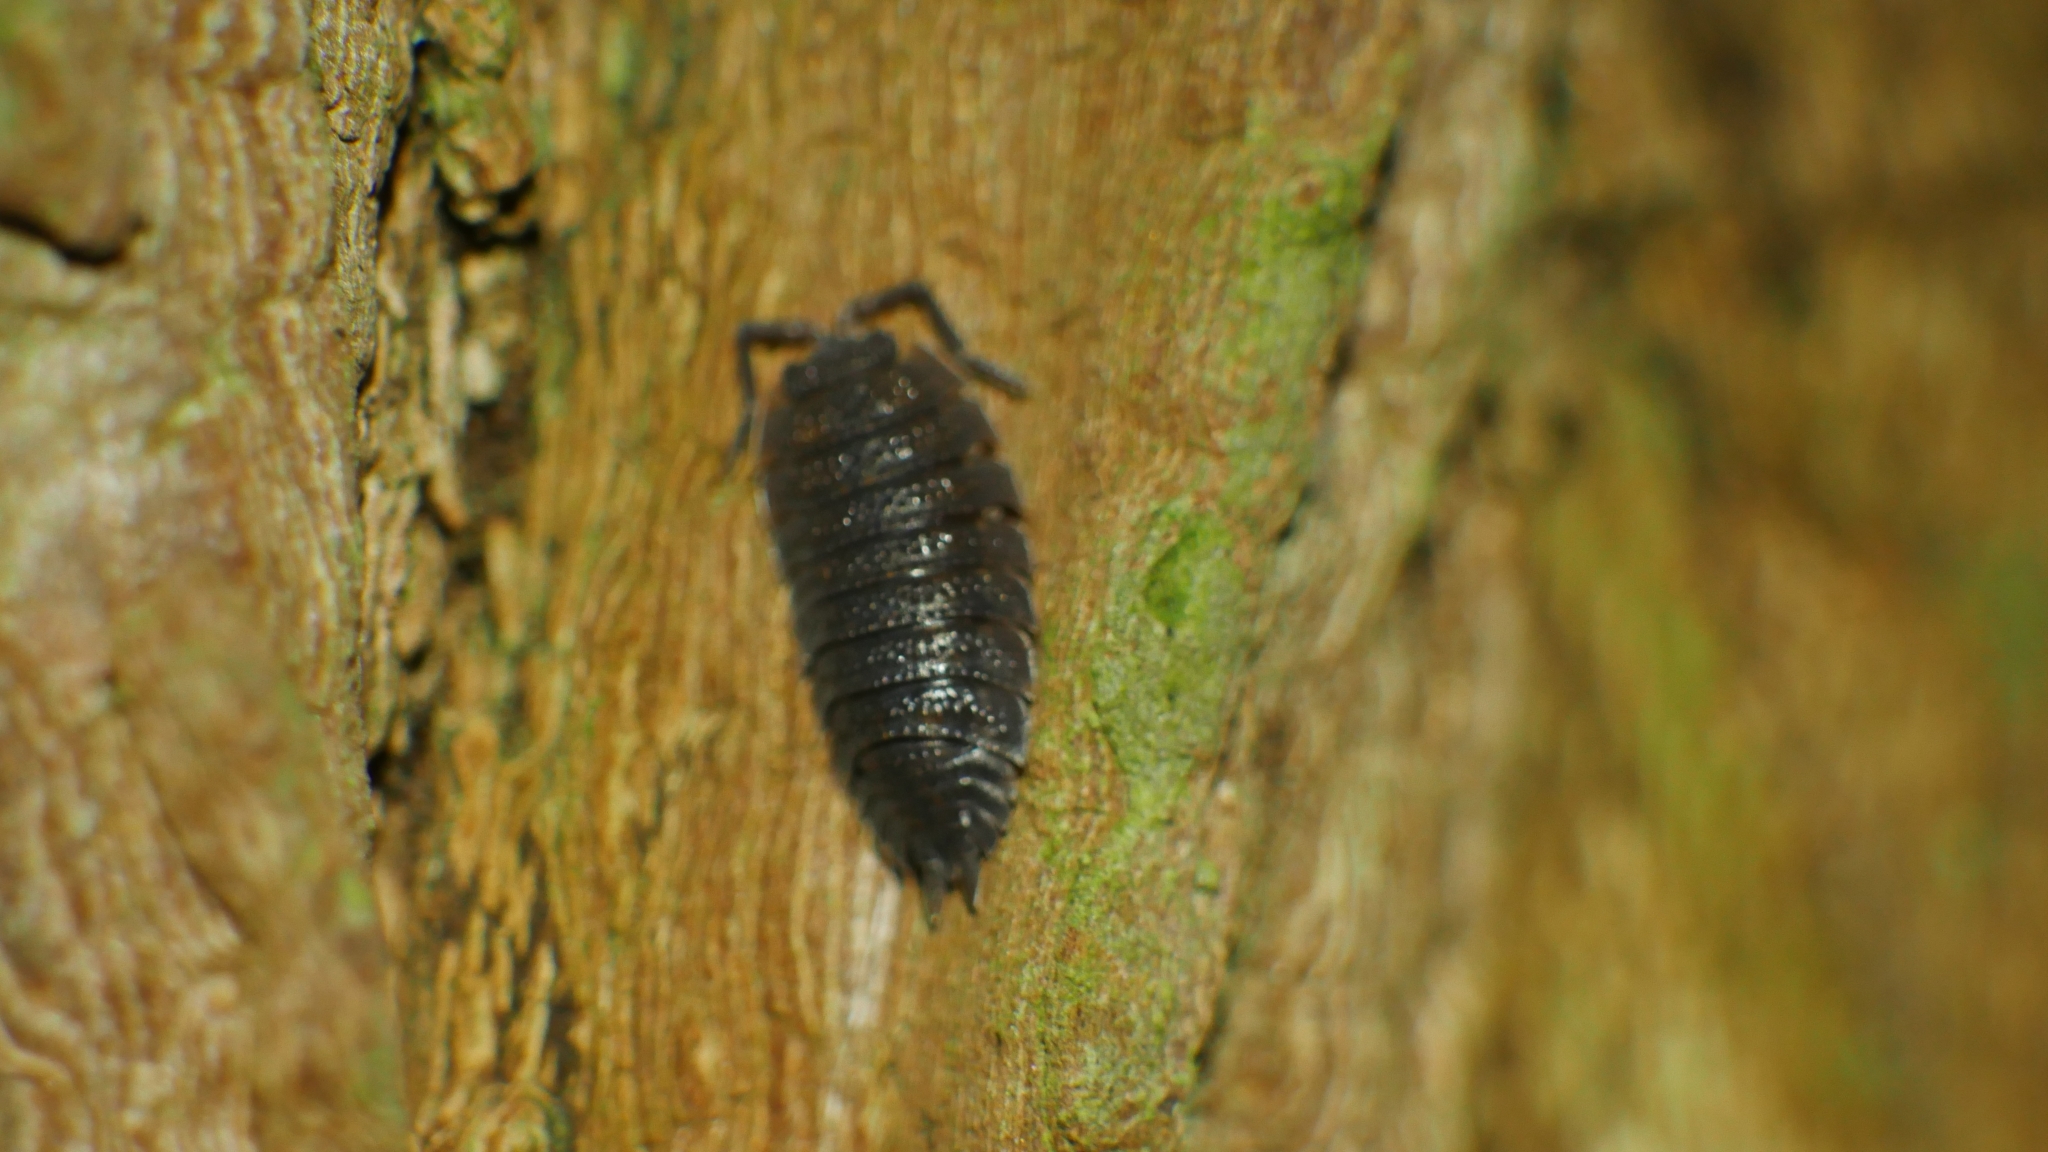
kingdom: Animalia
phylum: Arthropoda
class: Malacostraca
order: Isopoda
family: Porcellionidae
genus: Porcellio
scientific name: Porcellio scaber
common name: Common rough woodlouse
